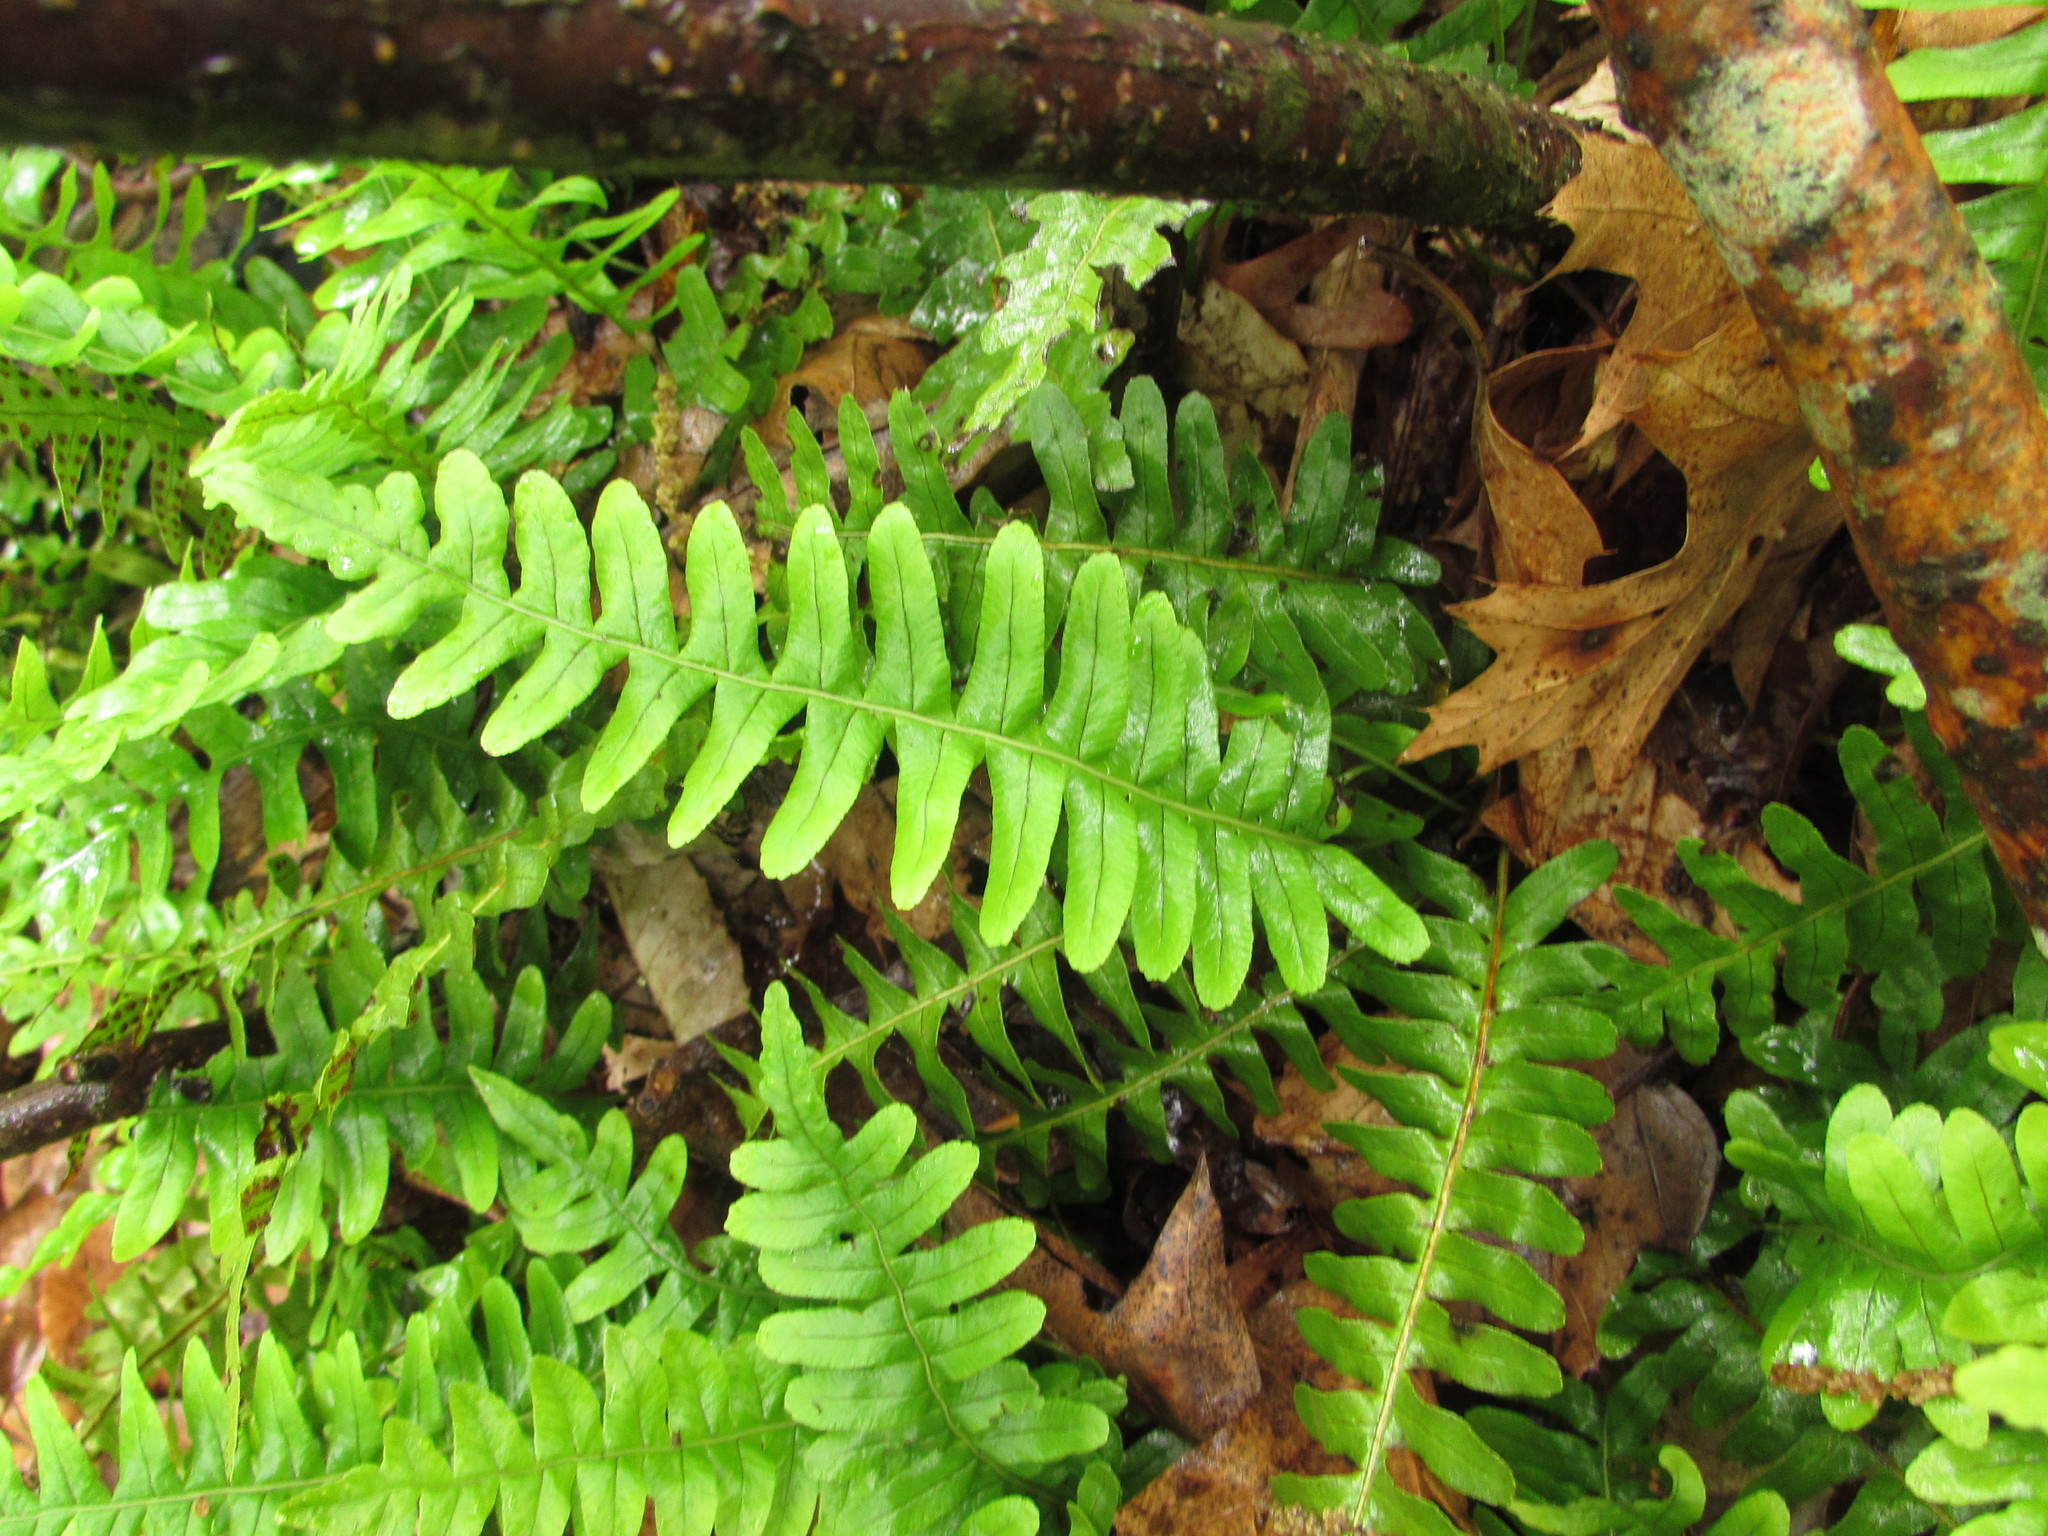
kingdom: Plantae
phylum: Tracheophyta
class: Polypodiopsida
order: Polypodiales
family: Polypodiaceae
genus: Polypodium
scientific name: Polypodium virginianum
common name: American wall fern
